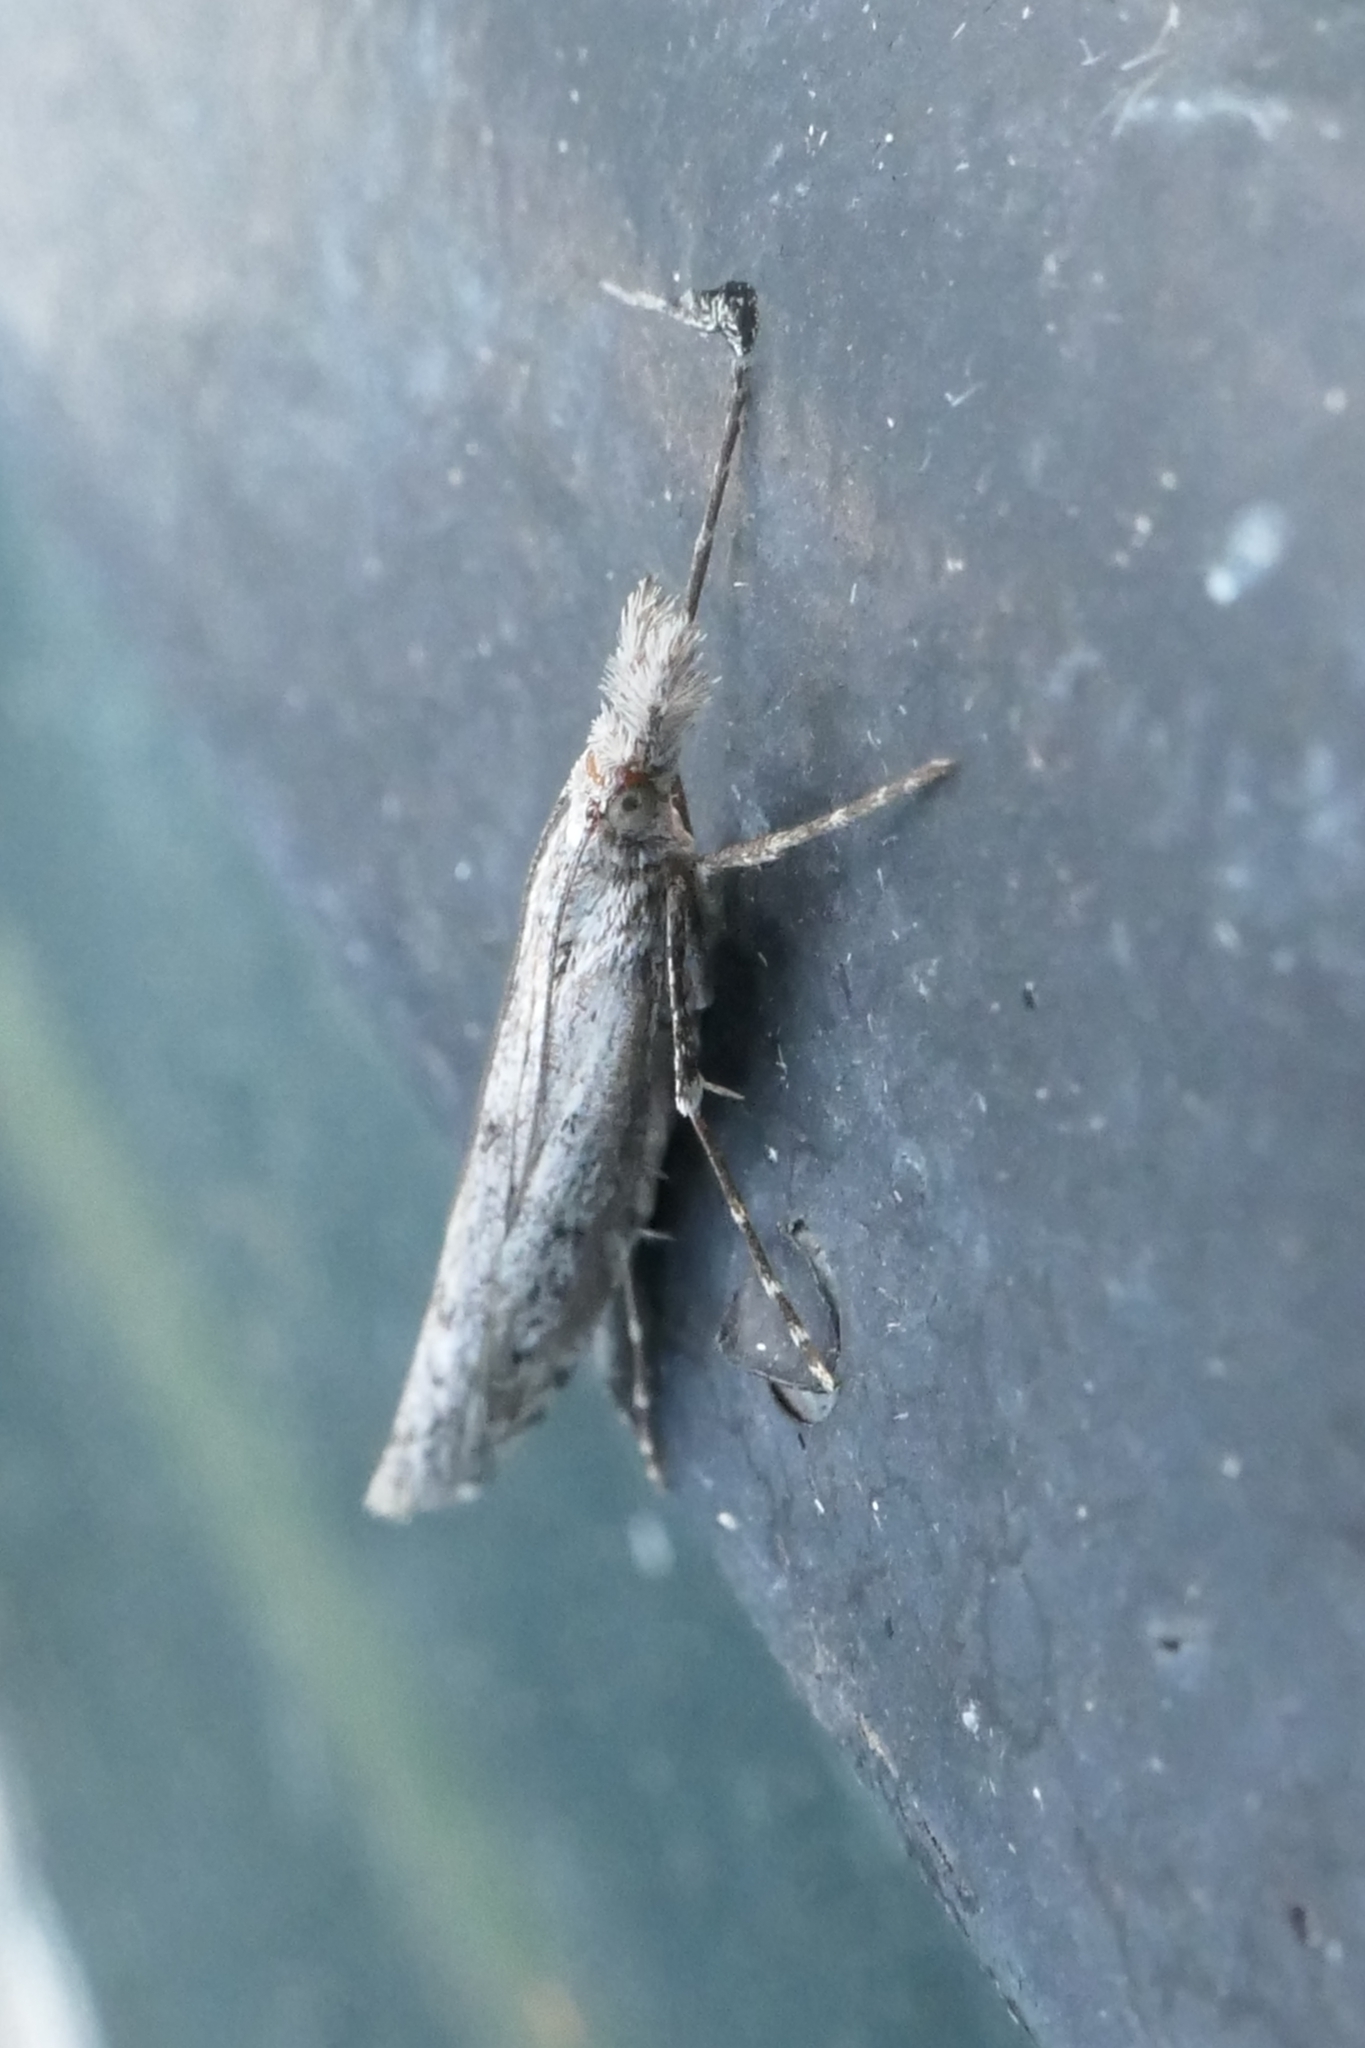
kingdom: Animalia
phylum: Arthropoda
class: Insecta
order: Lepidoptera
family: Crambidae
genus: Orocrambus
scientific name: Orocrambus cyclopicus
